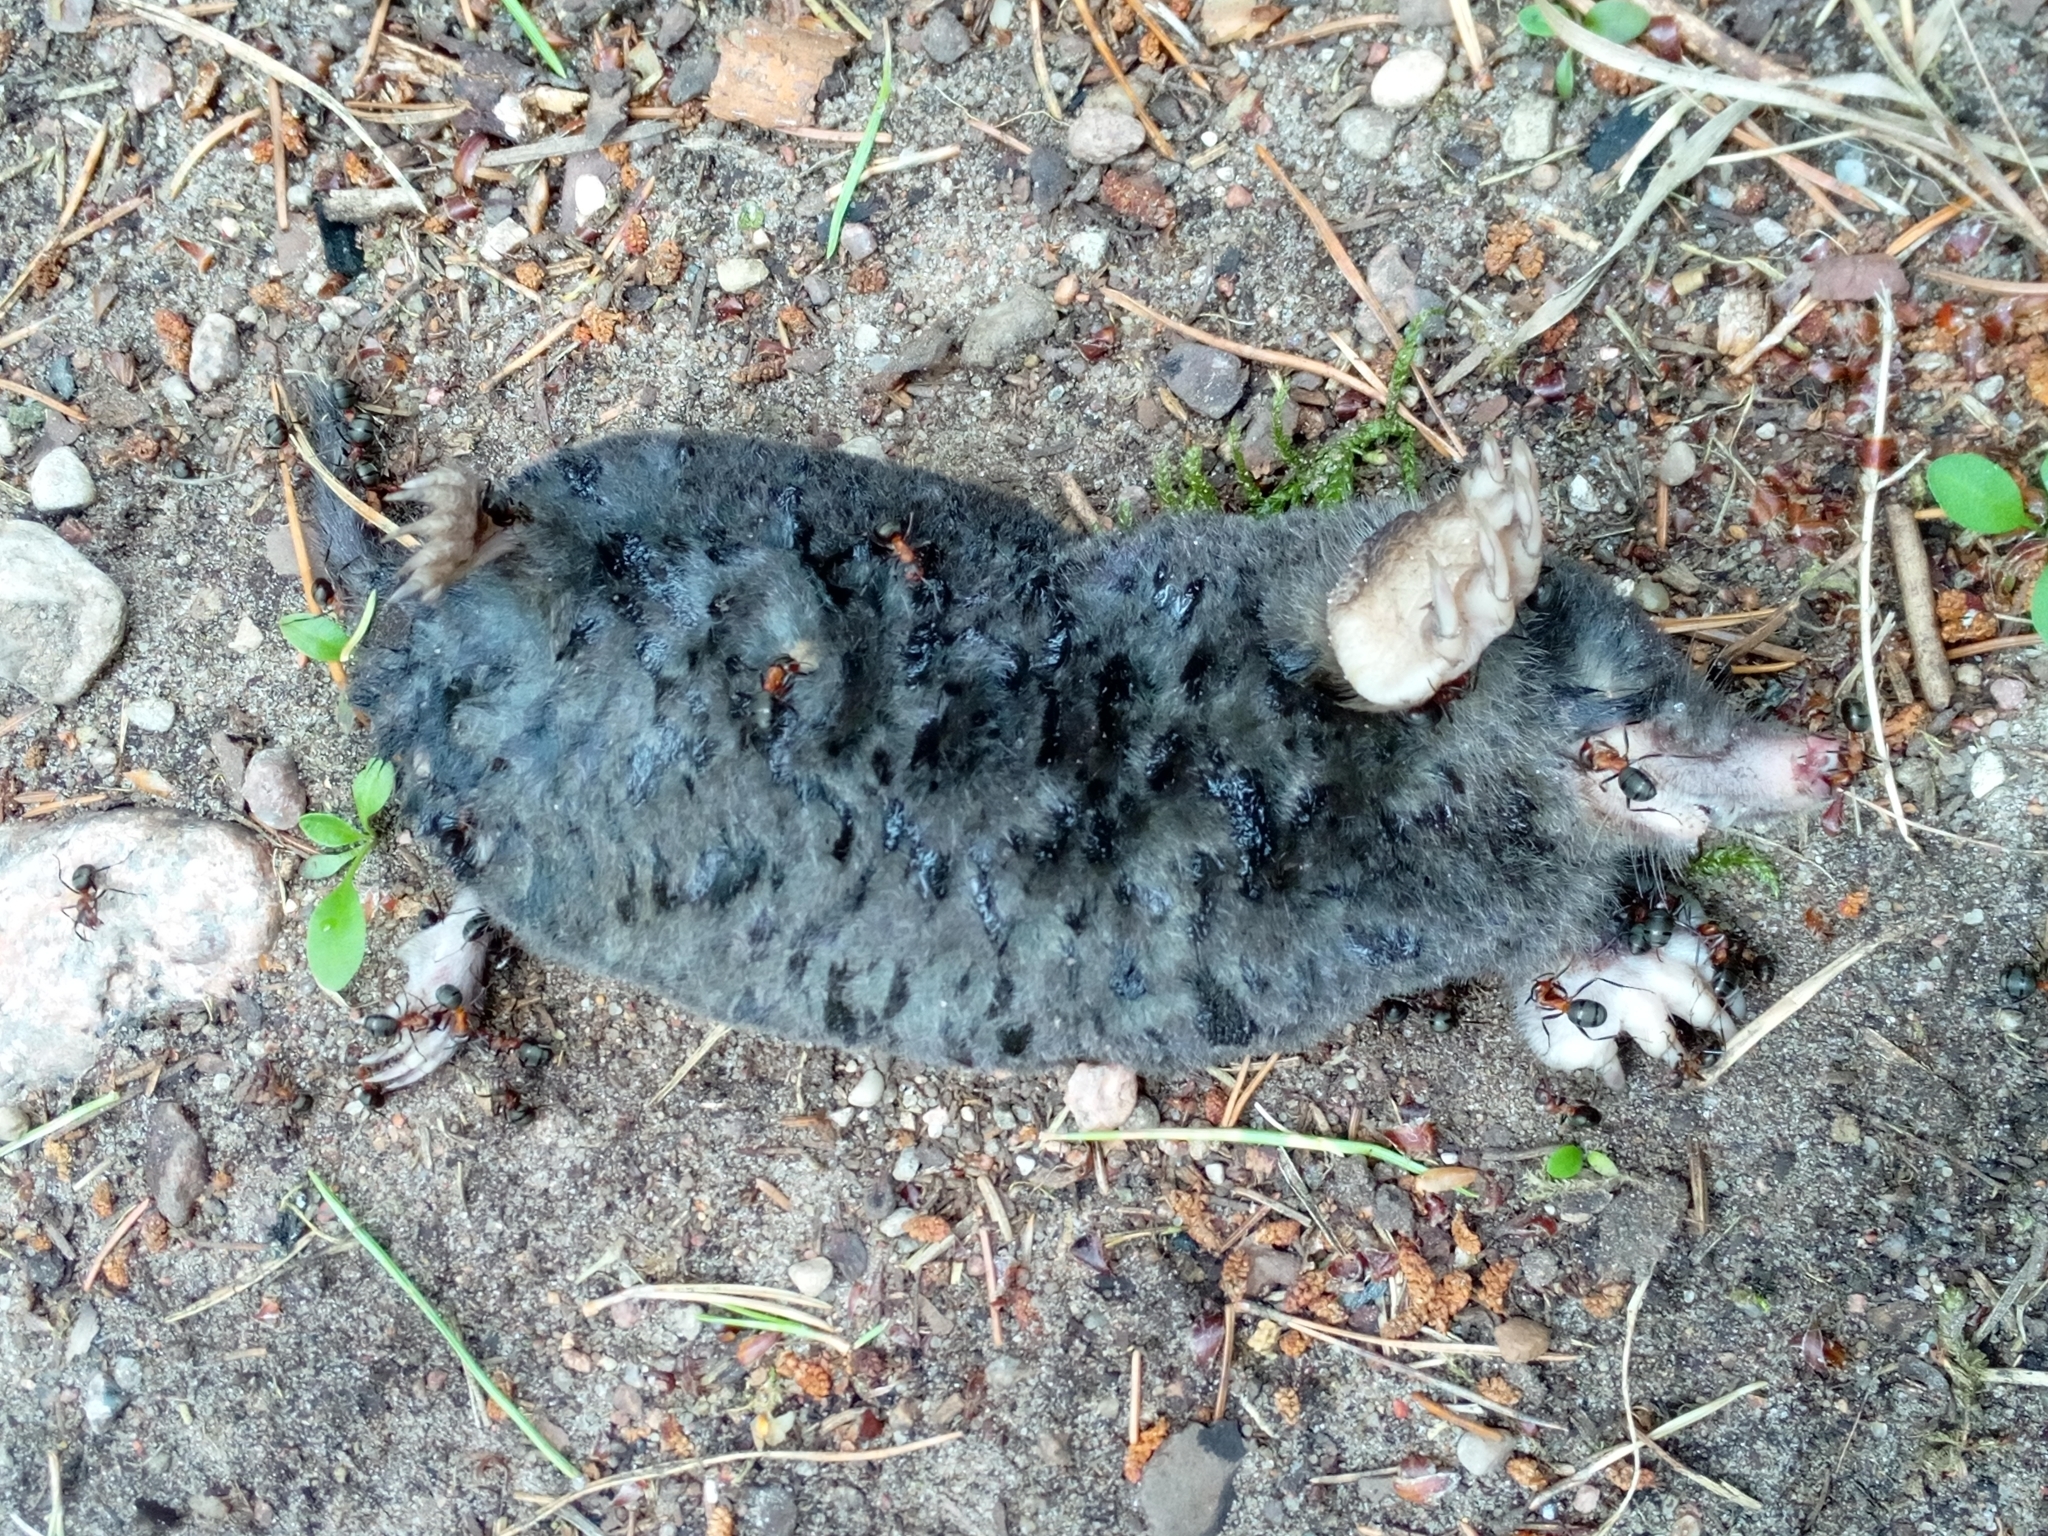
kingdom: Animalia
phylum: Chordata
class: Mammalia
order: Soricomorpha
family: Talpidae
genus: Talpa
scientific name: Talpa europaea
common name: European mole
